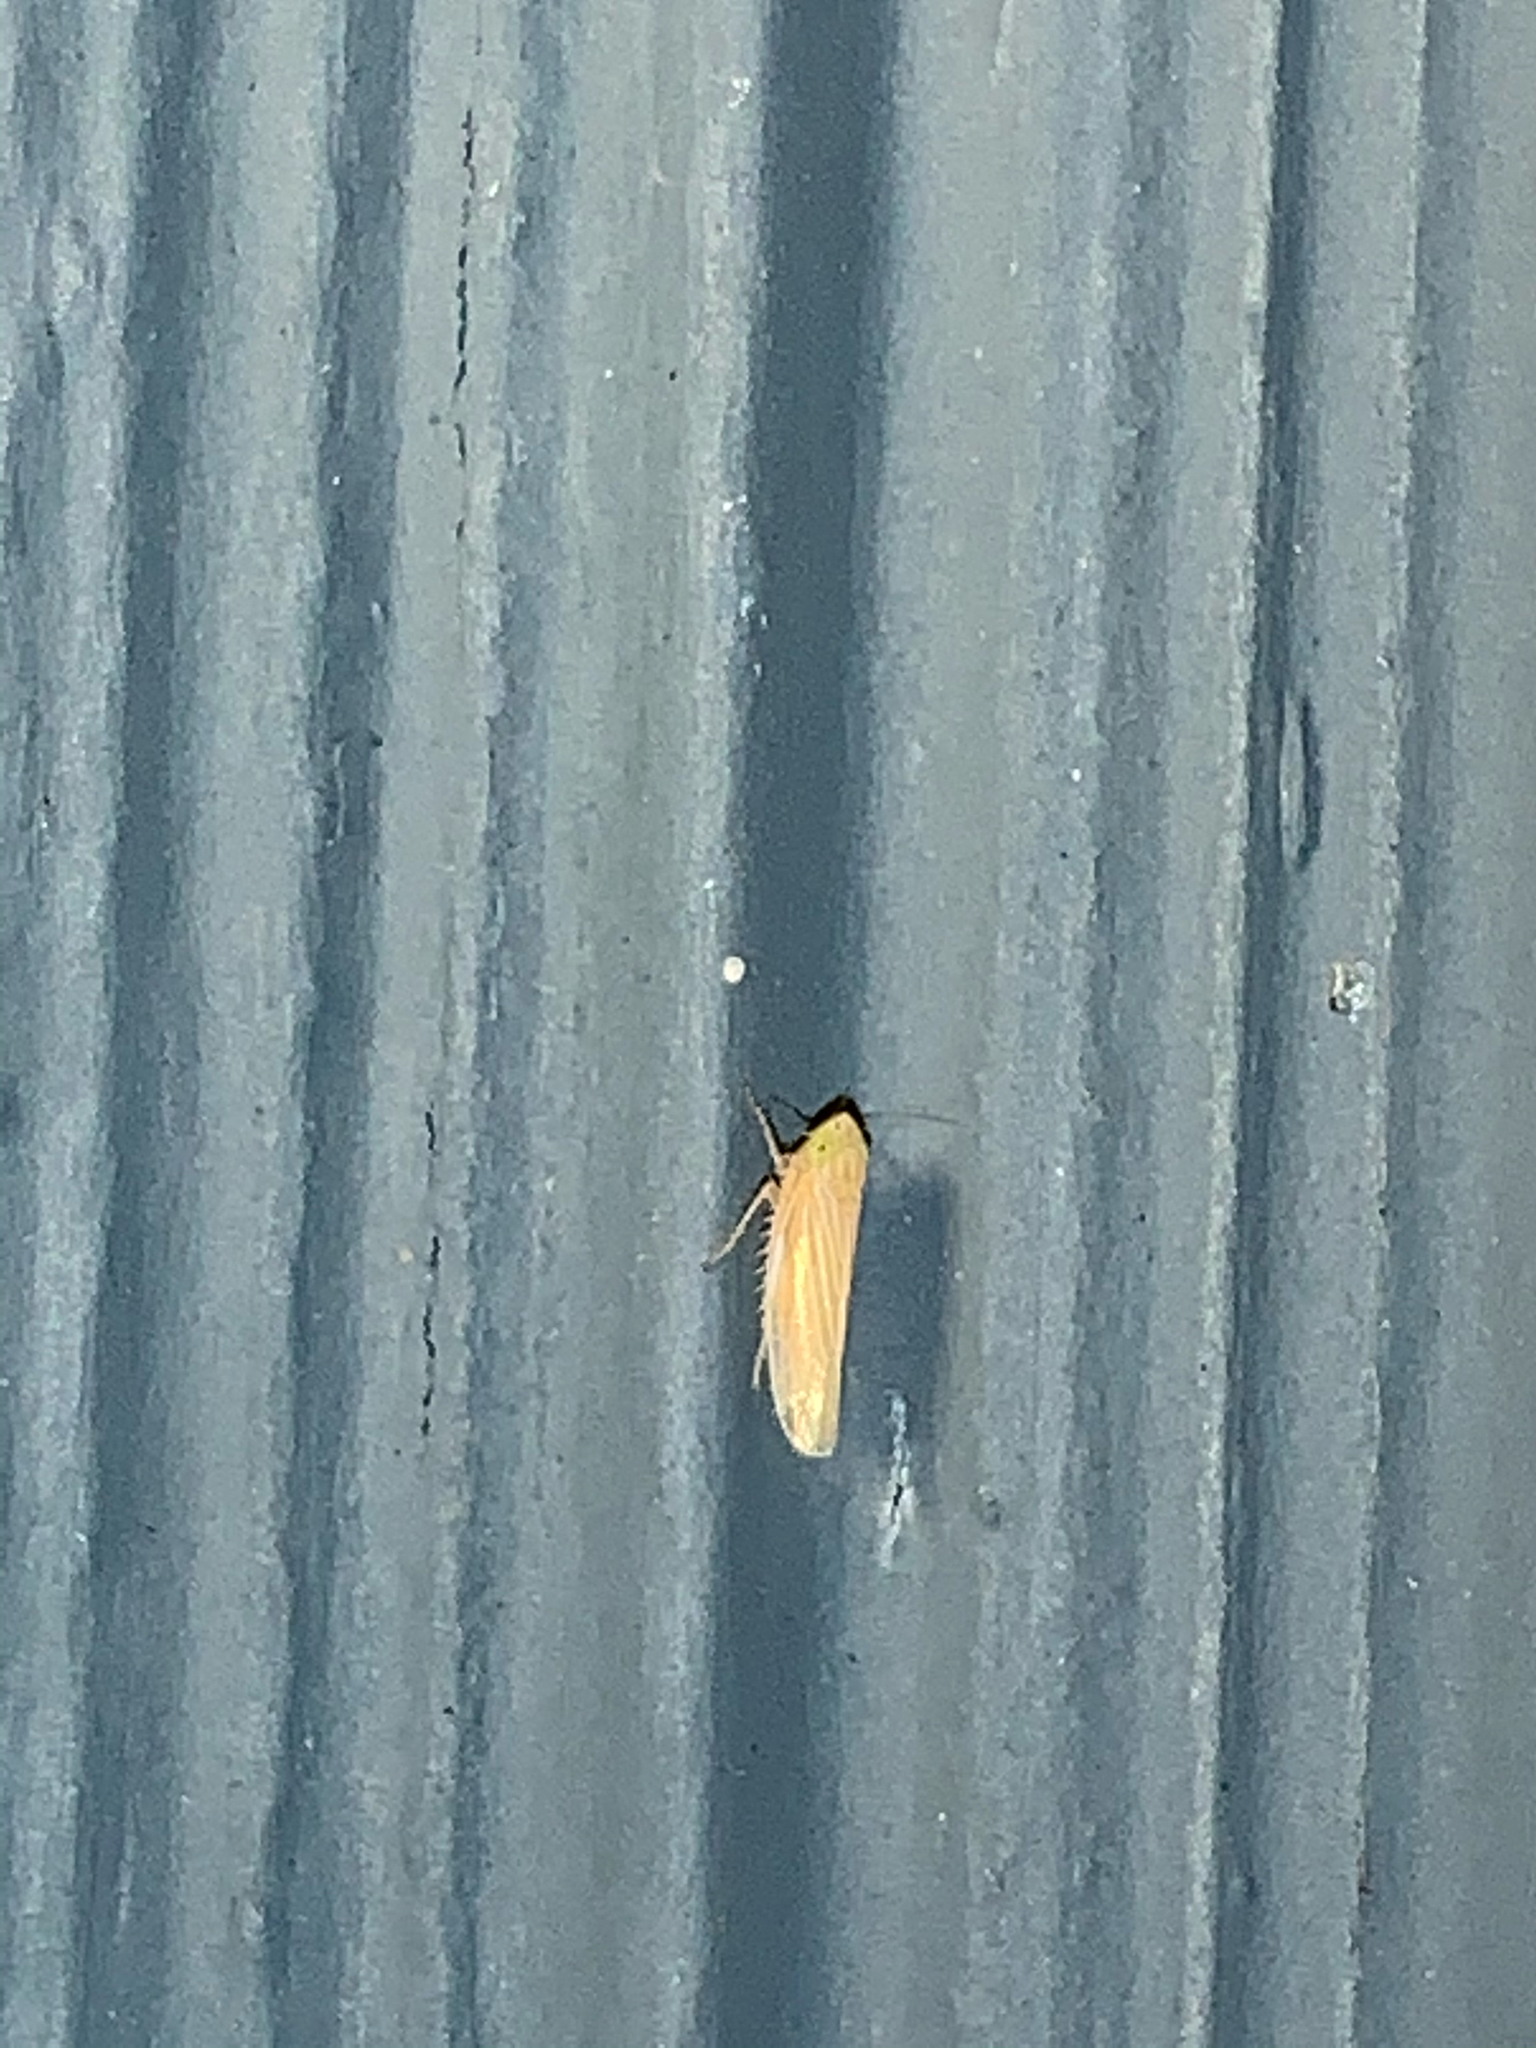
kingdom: Animalia
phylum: Arthropoda
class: Insecta
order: Hemiptera
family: Cicadellidae
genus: Graminella
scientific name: Graminella fitchii
